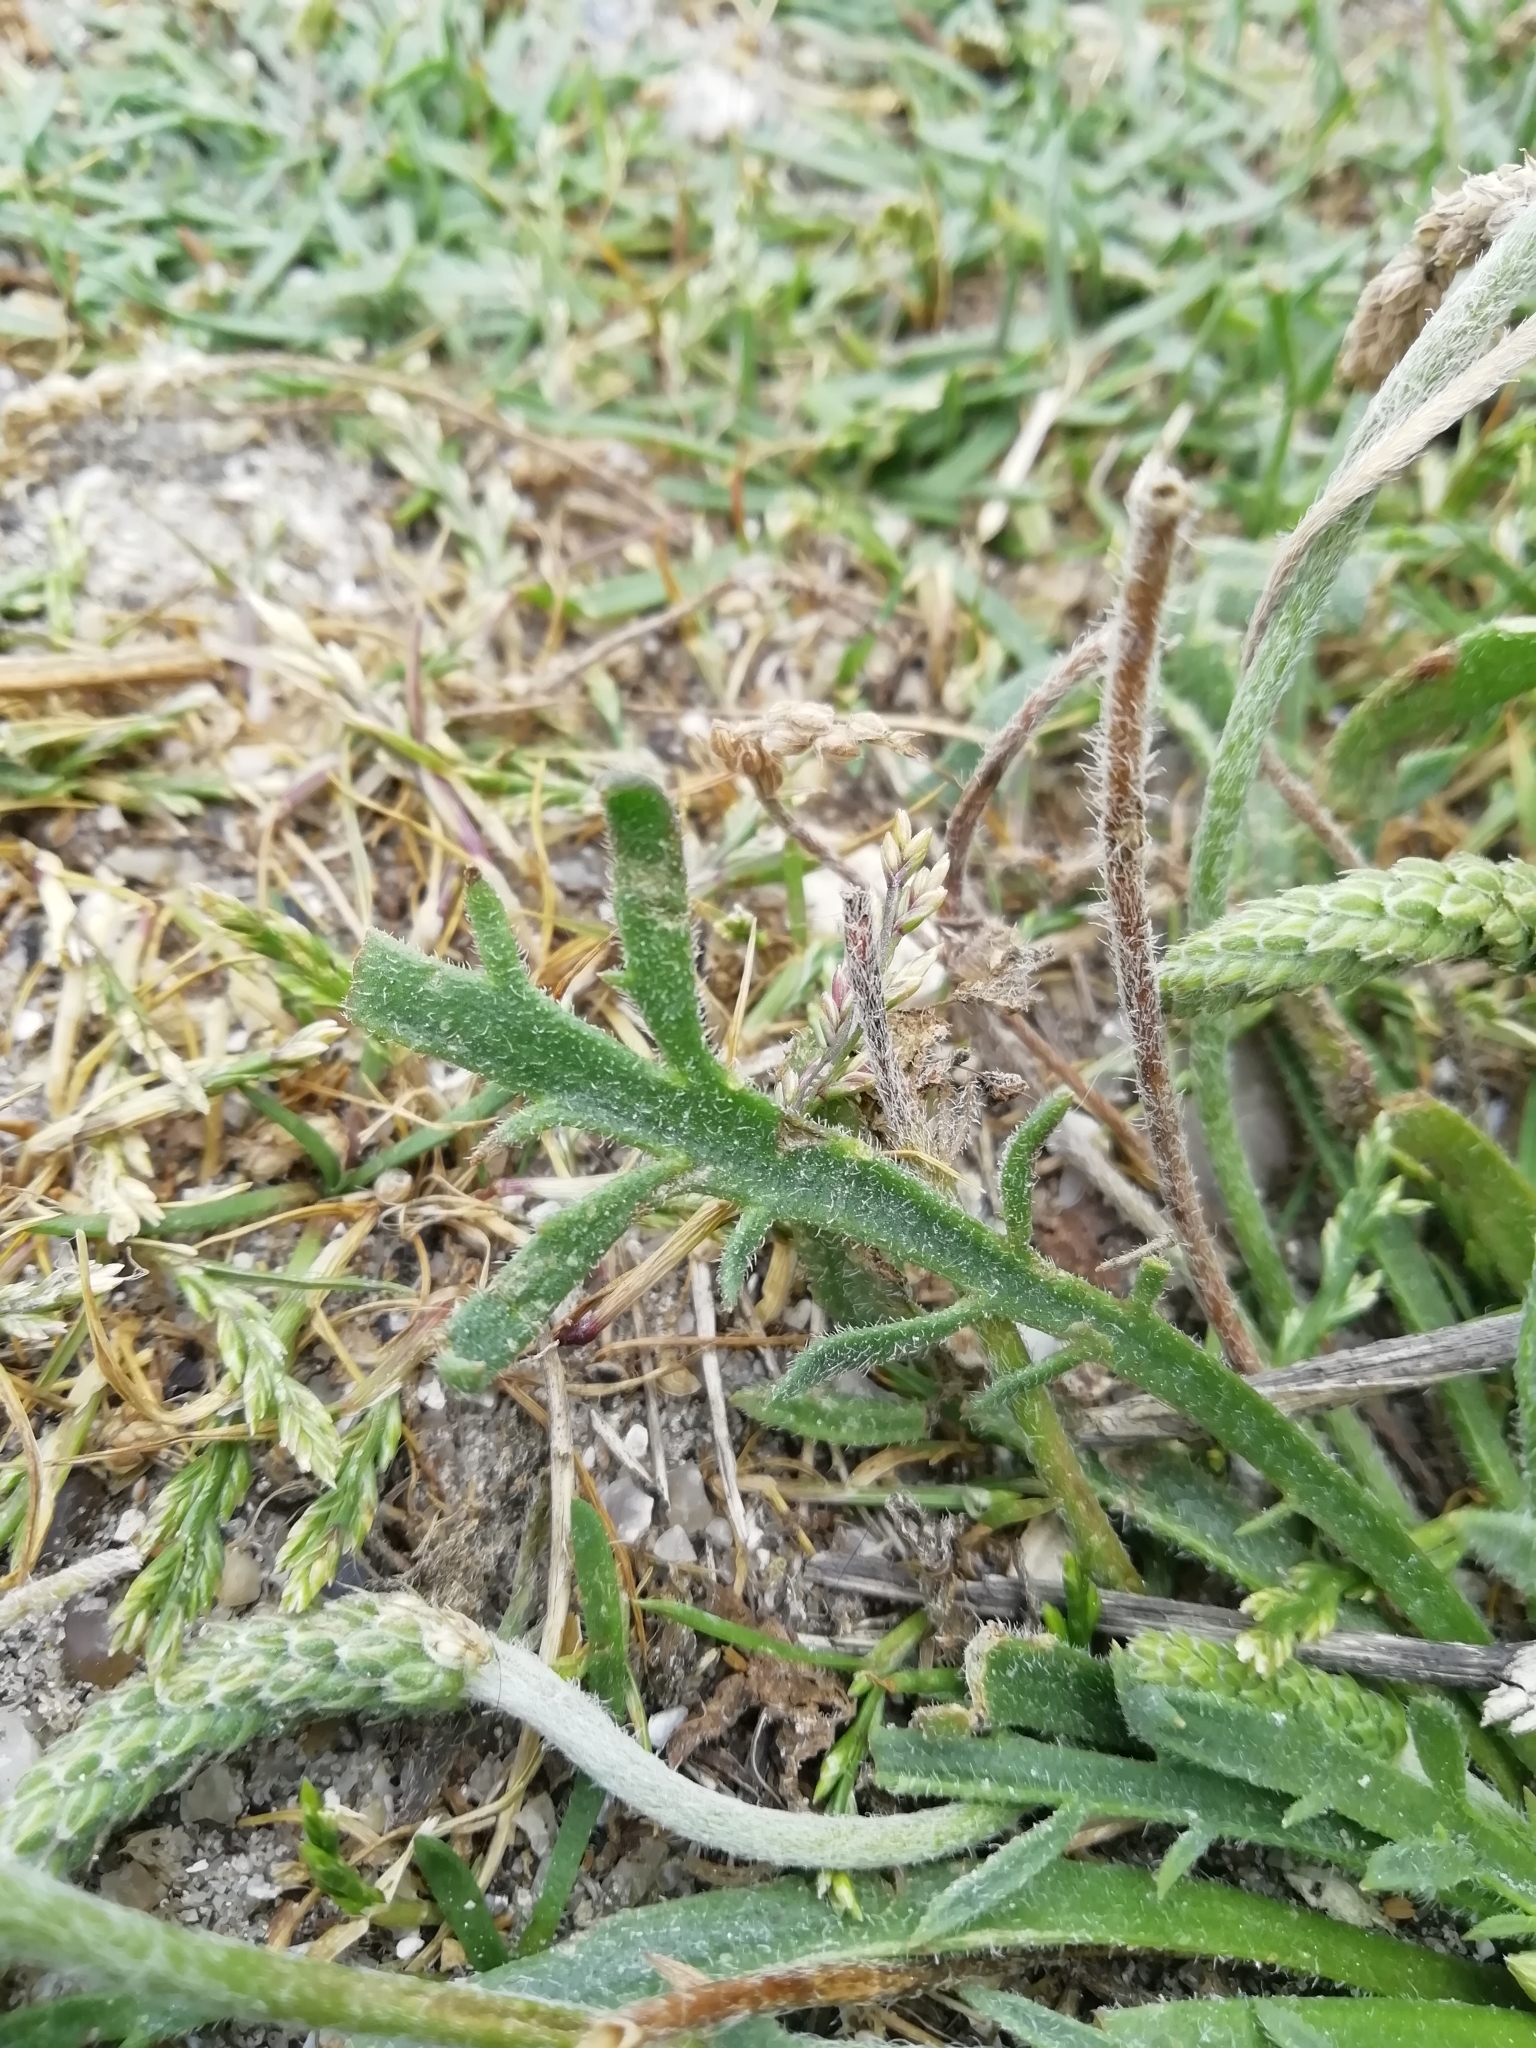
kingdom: Plantae
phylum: Tracheophyta
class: Magnoliopsida
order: Lamiales
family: Plantaginaceae
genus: Plantago
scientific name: Plantago coronopus
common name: Buck's-horn plantain
